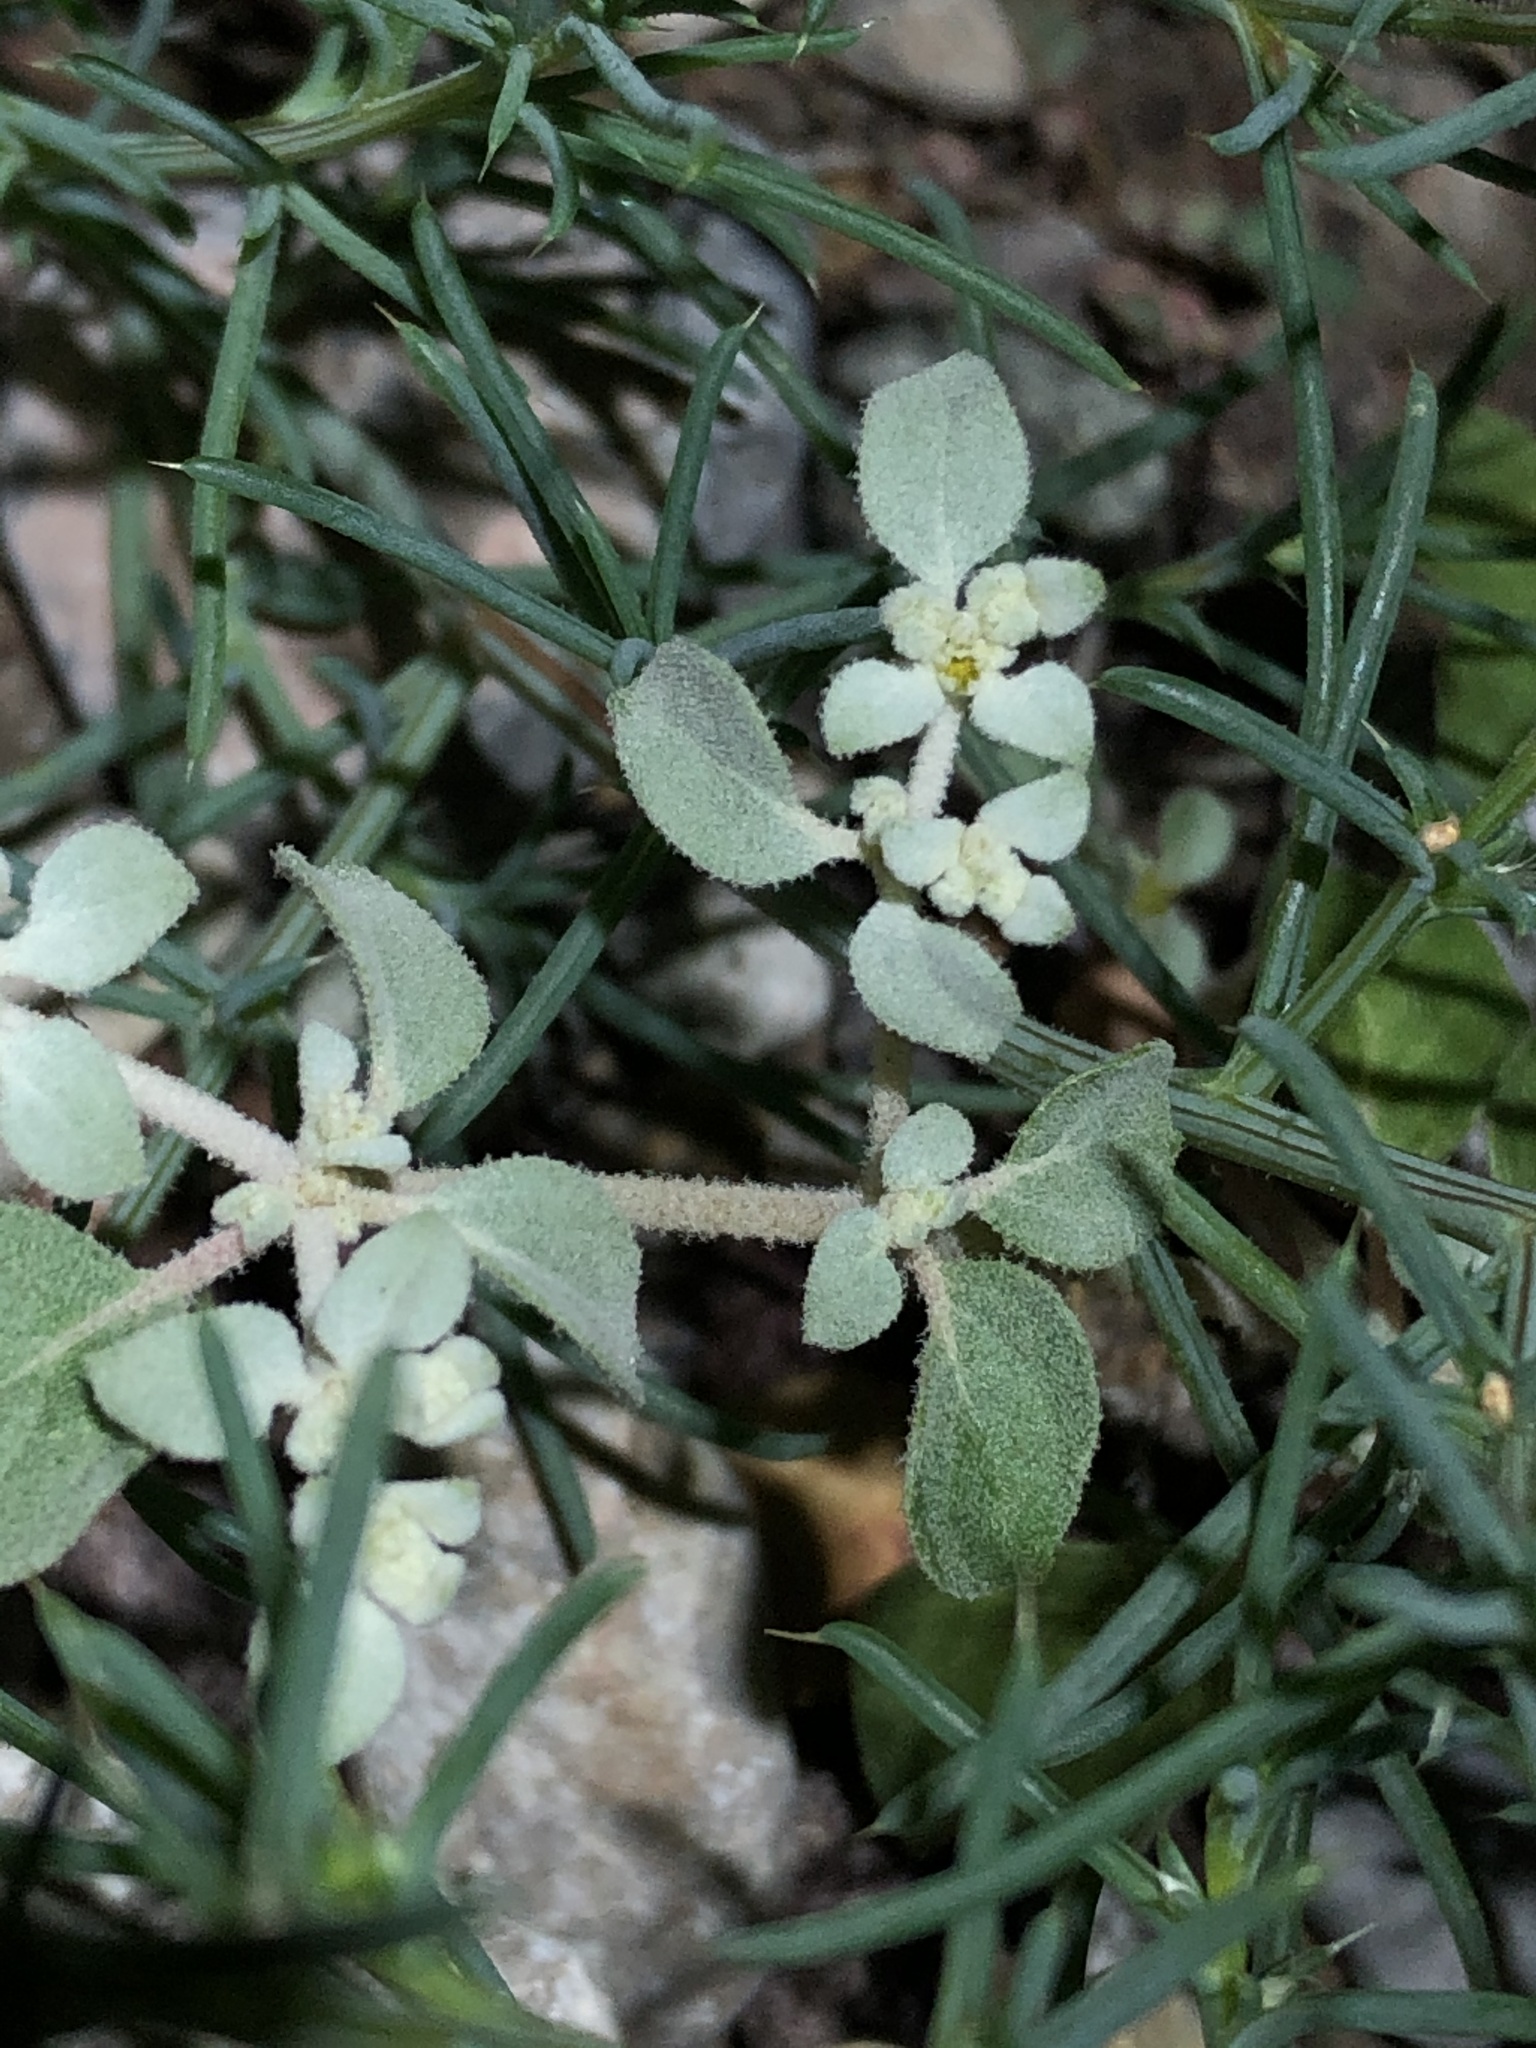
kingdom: Plantae
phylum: Tracheophyta
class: Magnoliopsida
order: Caryophyllales
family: Amaranthaceae
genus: Tidestromia
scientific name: Tidestromia lanuginosa
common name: Woolly tidestromia
